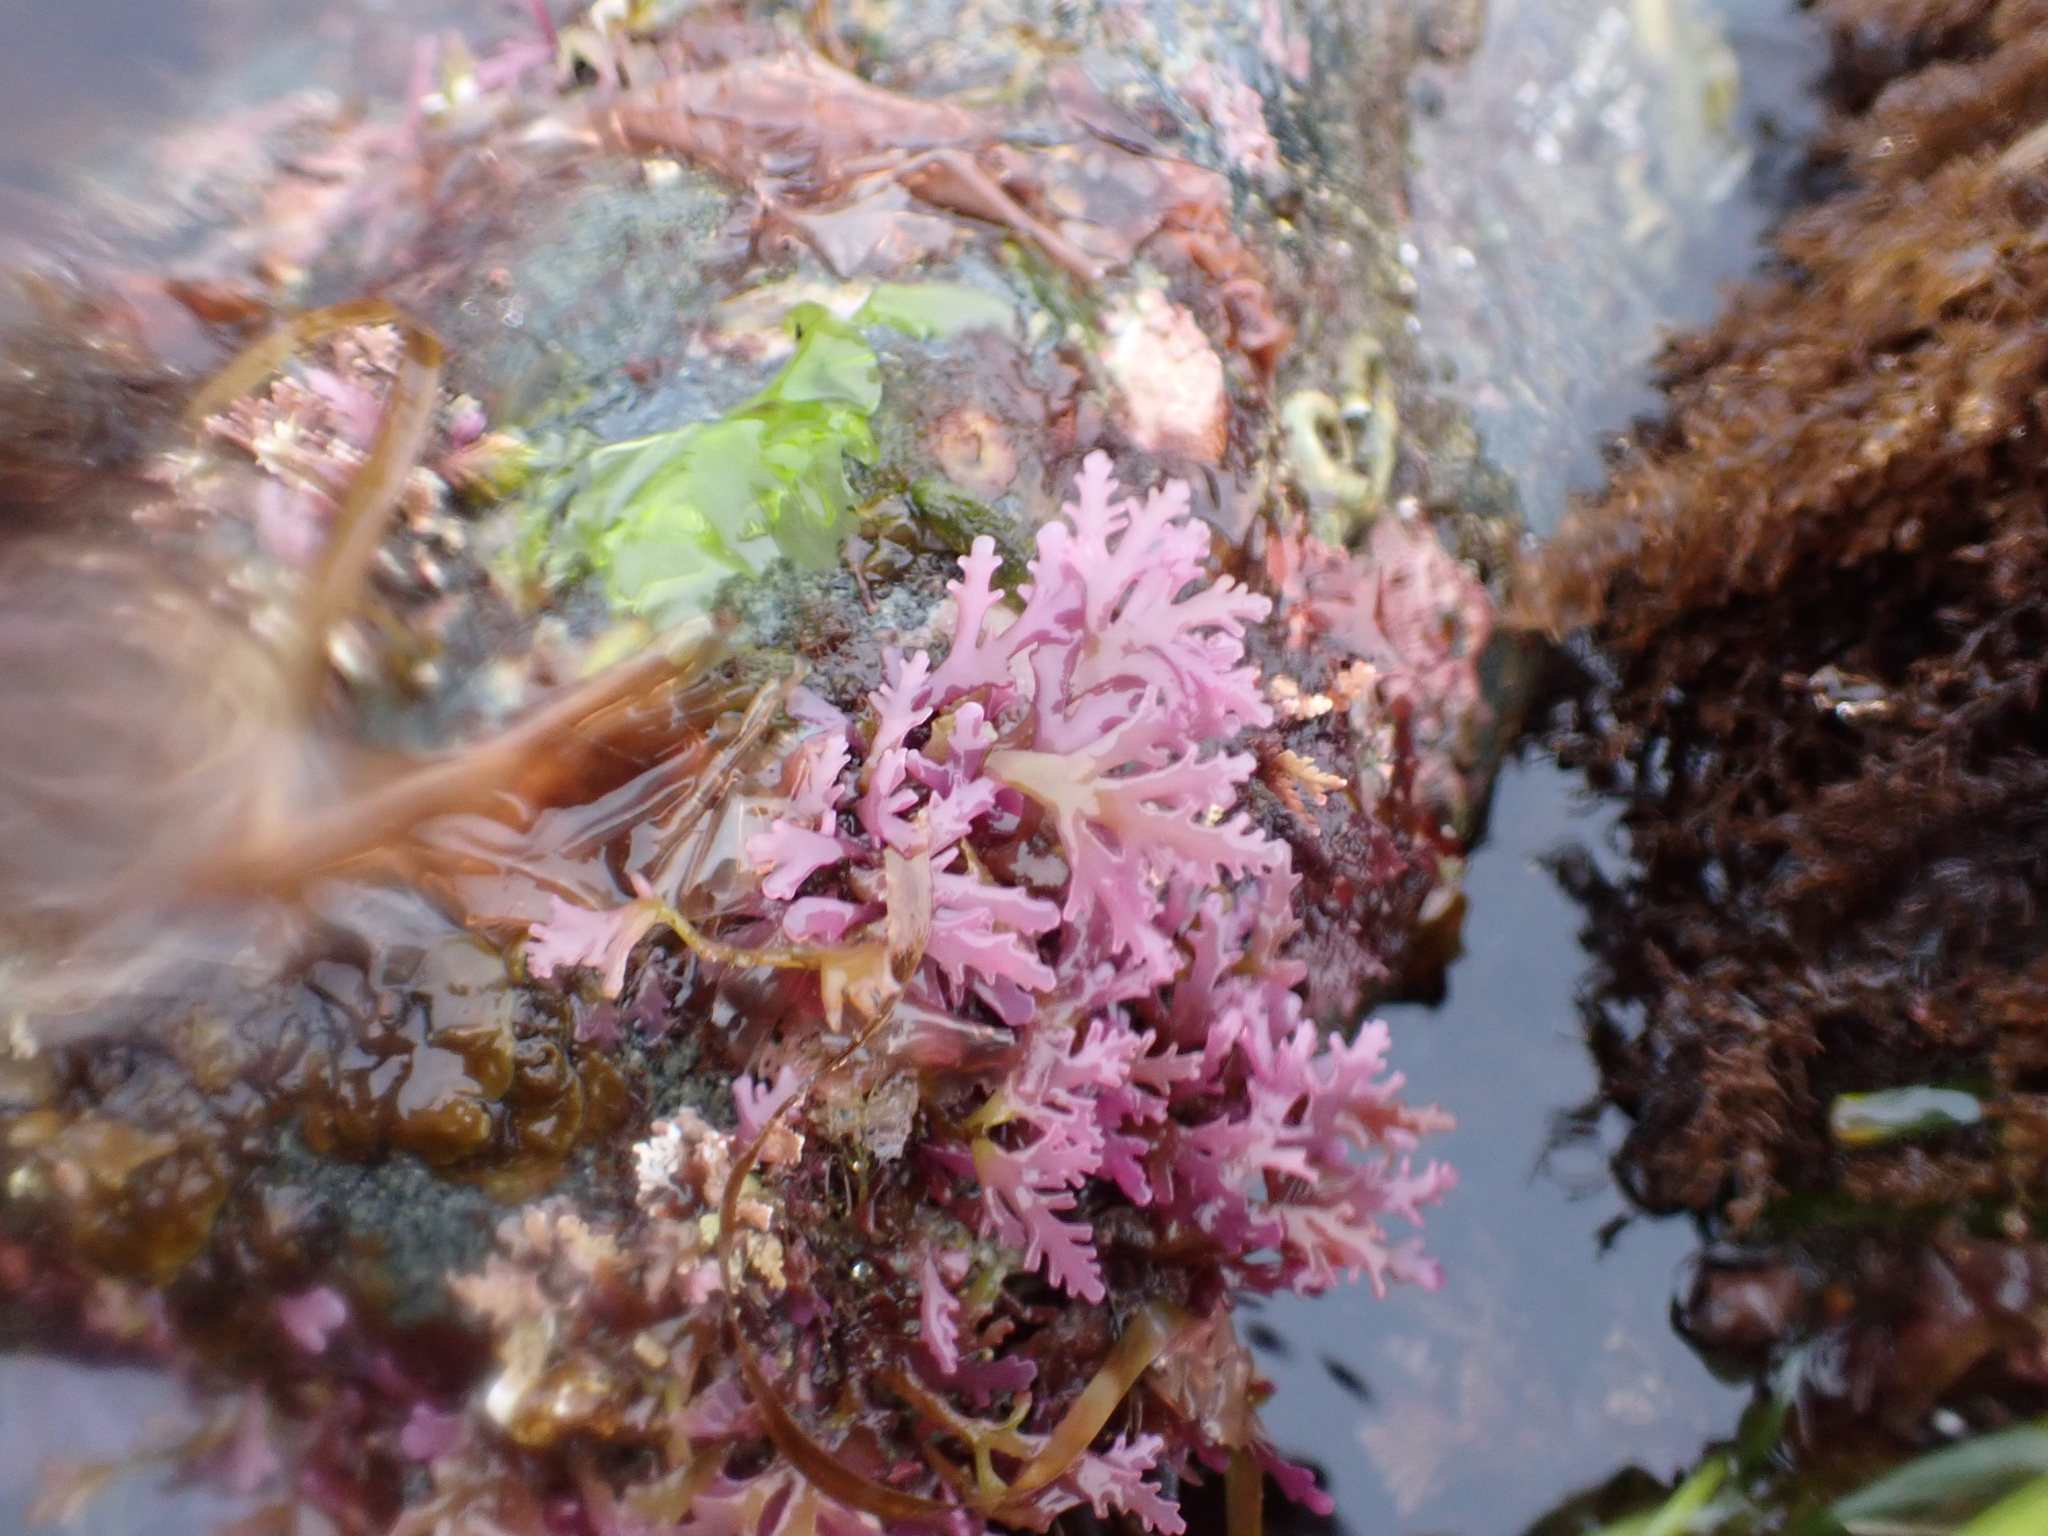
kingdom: Plantae
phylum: Rhodophyta
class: Florideophyceae
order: Ceramiales
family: Rhodomelaceae
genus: Osmundea
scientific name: Osmundea spectabilis
